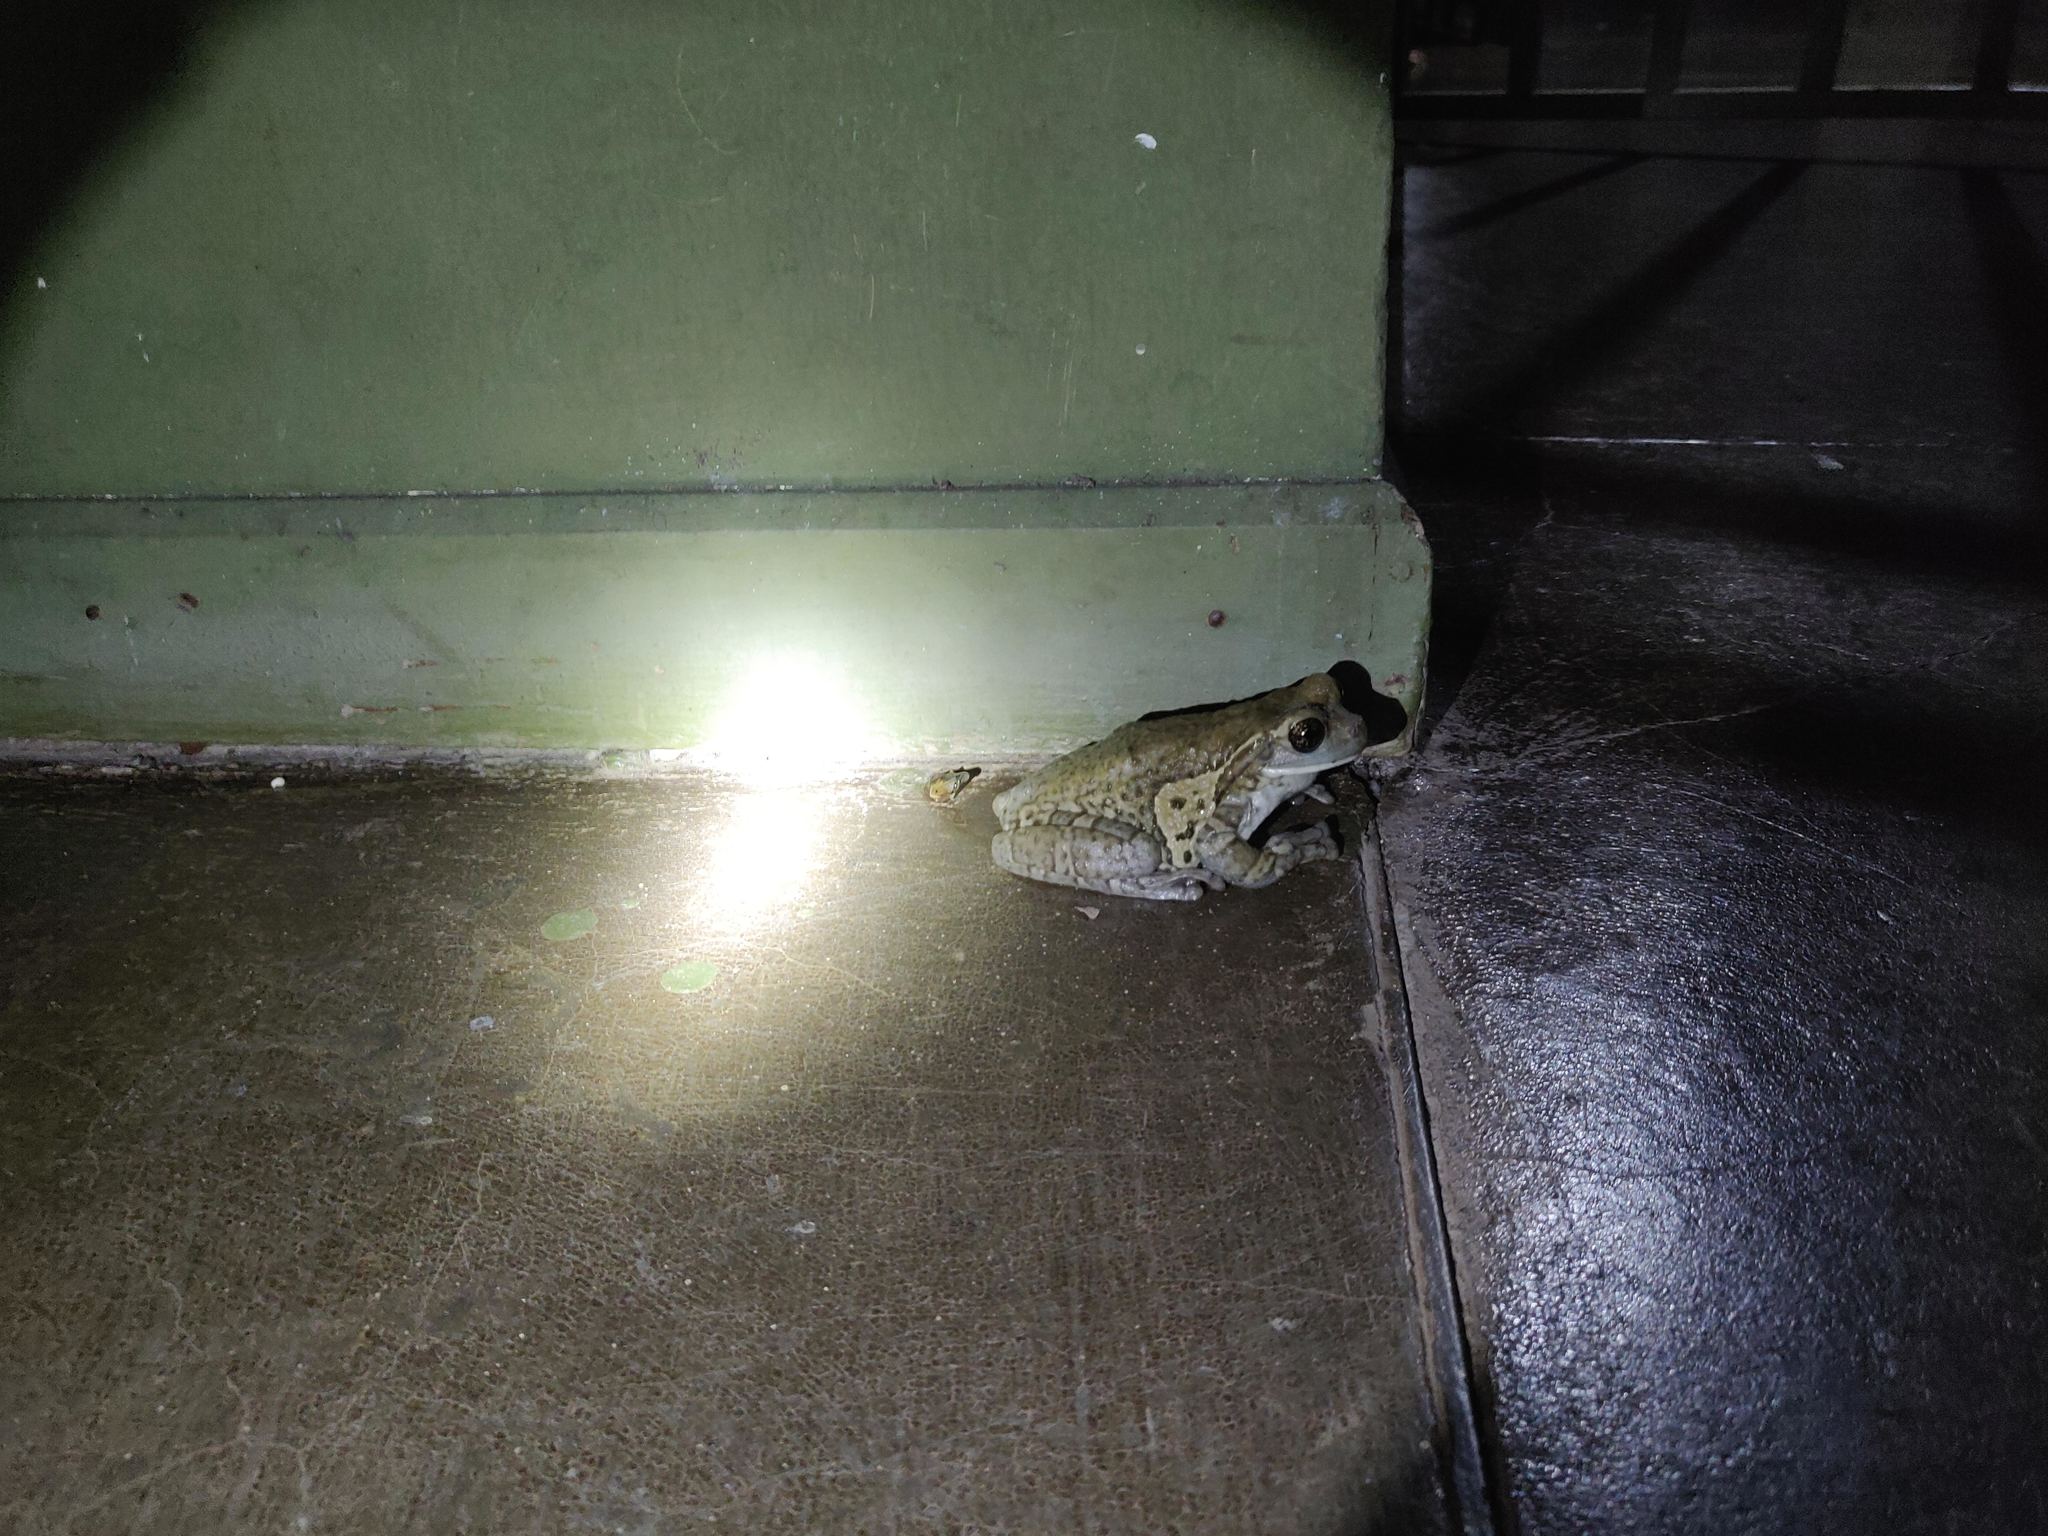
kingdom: Animalia
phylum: Chordata
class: Amphibia
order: Anura
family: Hylidae
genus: Trachycephalus
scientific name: Trachycephalus vermiculatus
